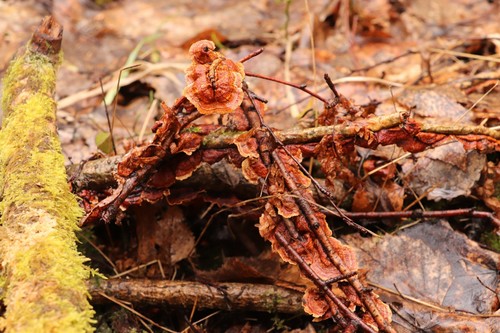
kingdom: Fungi
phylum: Basidiomycota
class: Agaricomycetes
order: Hymenochaetales
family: Hymenochaetaceae
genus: Hydnoporia
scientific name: Hydnoporia tabacina
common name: Willow glue
